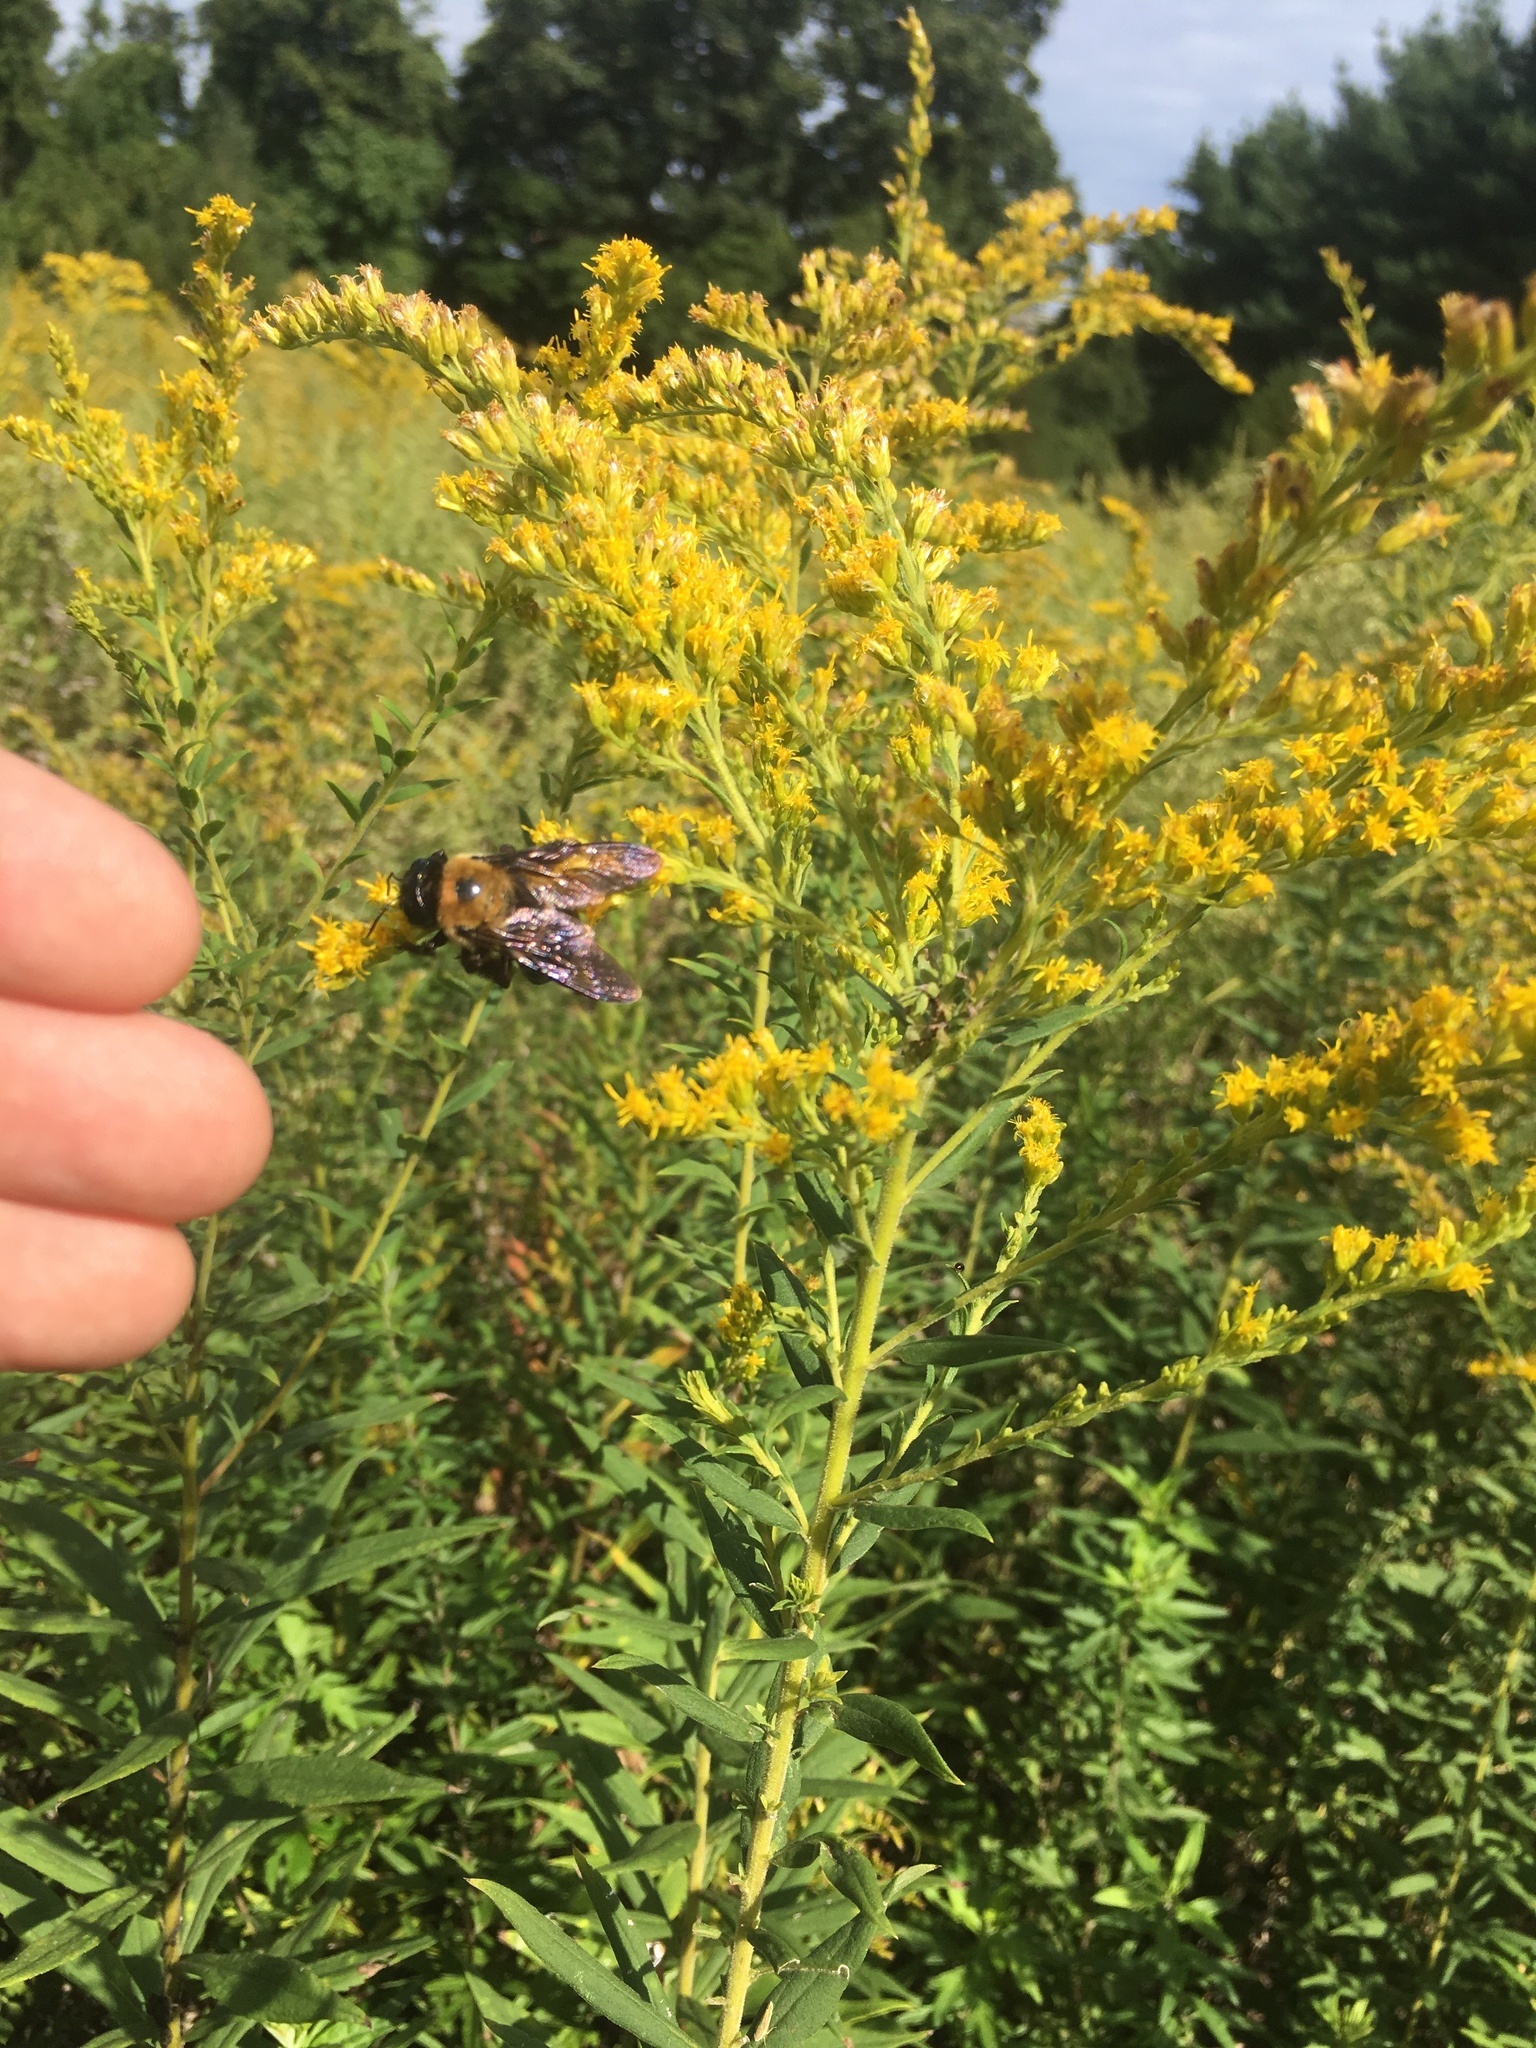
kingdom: Animalia
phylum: Arthropoda
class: Insecta
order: Hymenoptera
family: Apidae
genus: Xylocopa
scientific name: Xylocopa virginica
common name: Carpenter bee
